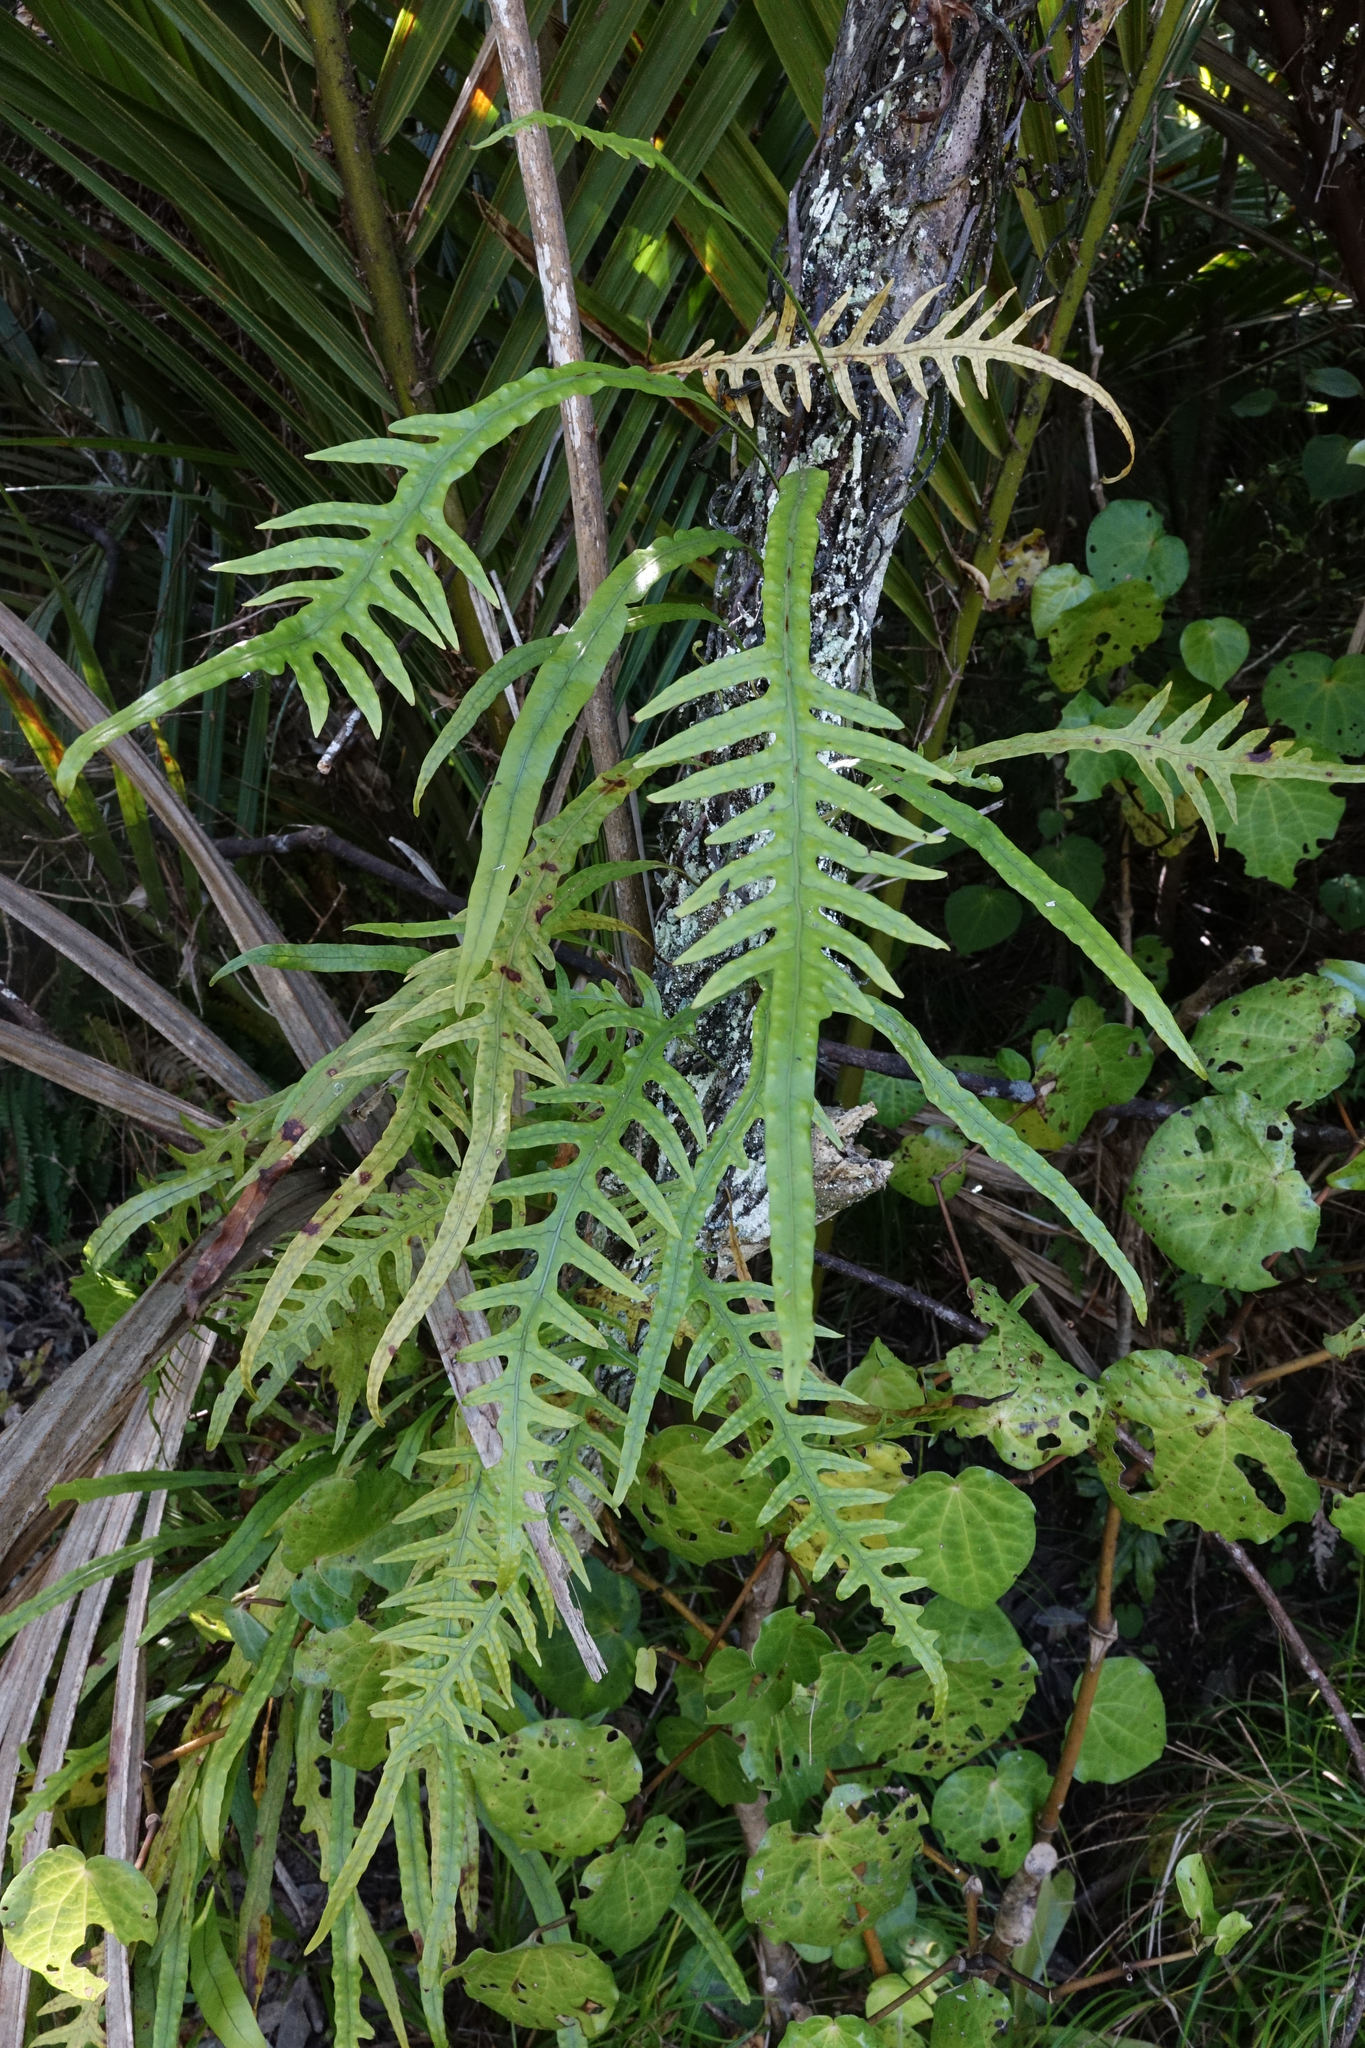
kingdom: Plantae
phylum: Tracheophyta
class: Polypodiopsida
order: Polypodiales
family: Polypodiaceae
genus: Lecanopteris
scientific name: Lecanopteris scandens
